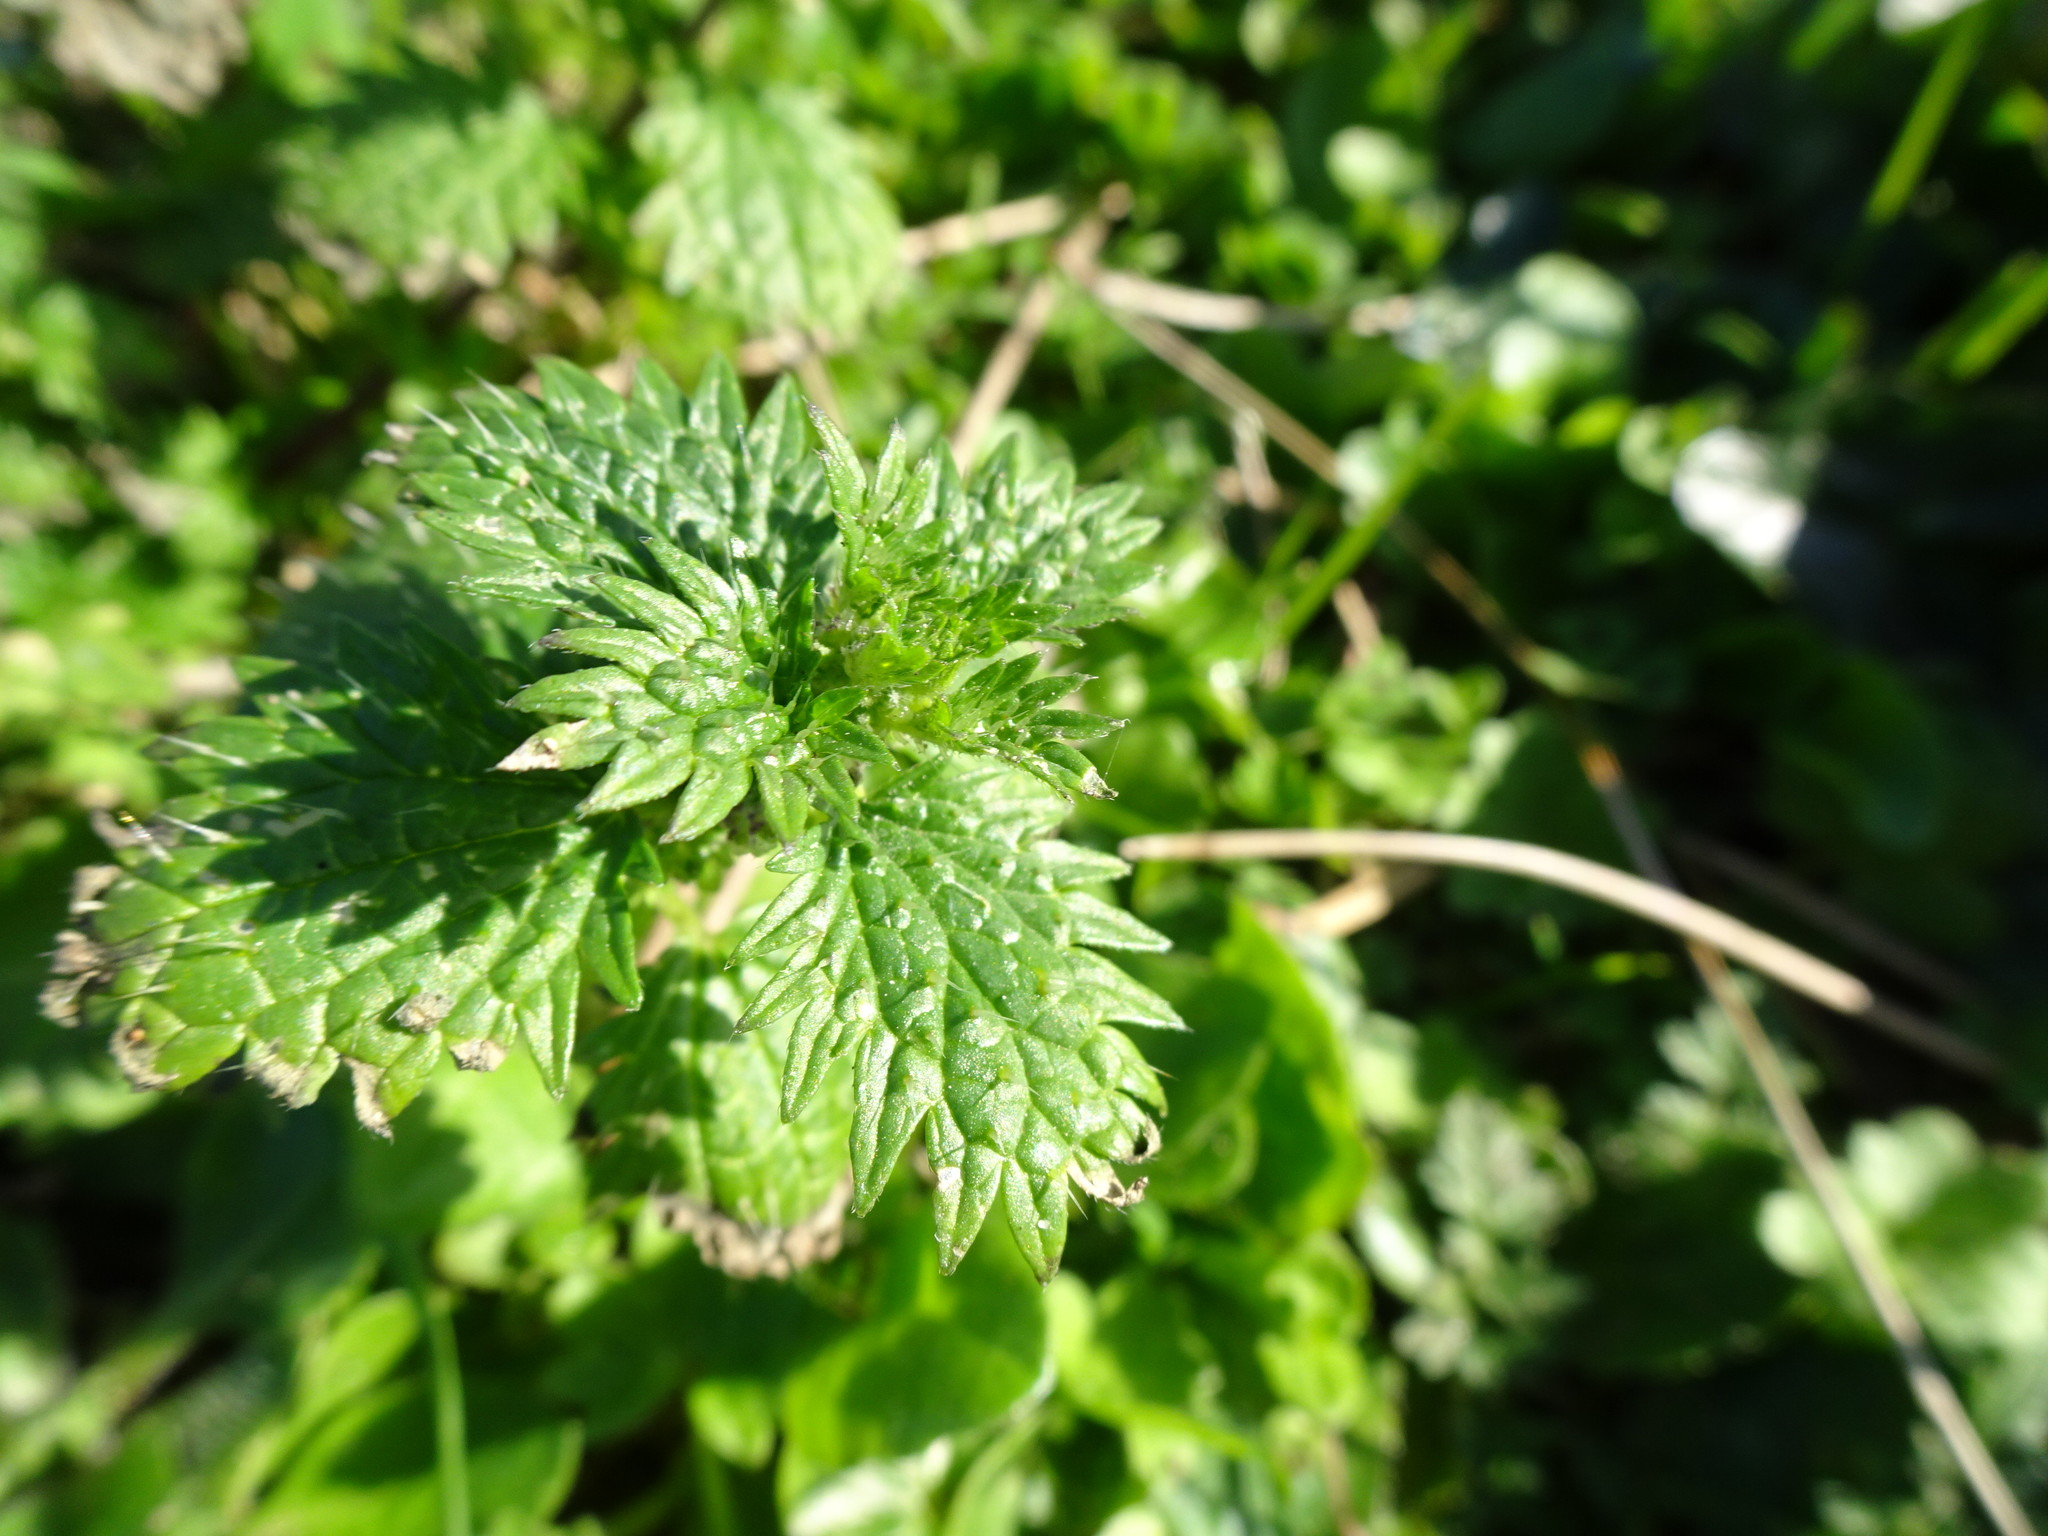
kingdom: Plantae
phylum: Tracheophyta
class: Magnoliopsida
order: Rosales
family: Urticaceae
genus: Urtica
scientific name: Urtica urens
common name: Dwarf nettle
